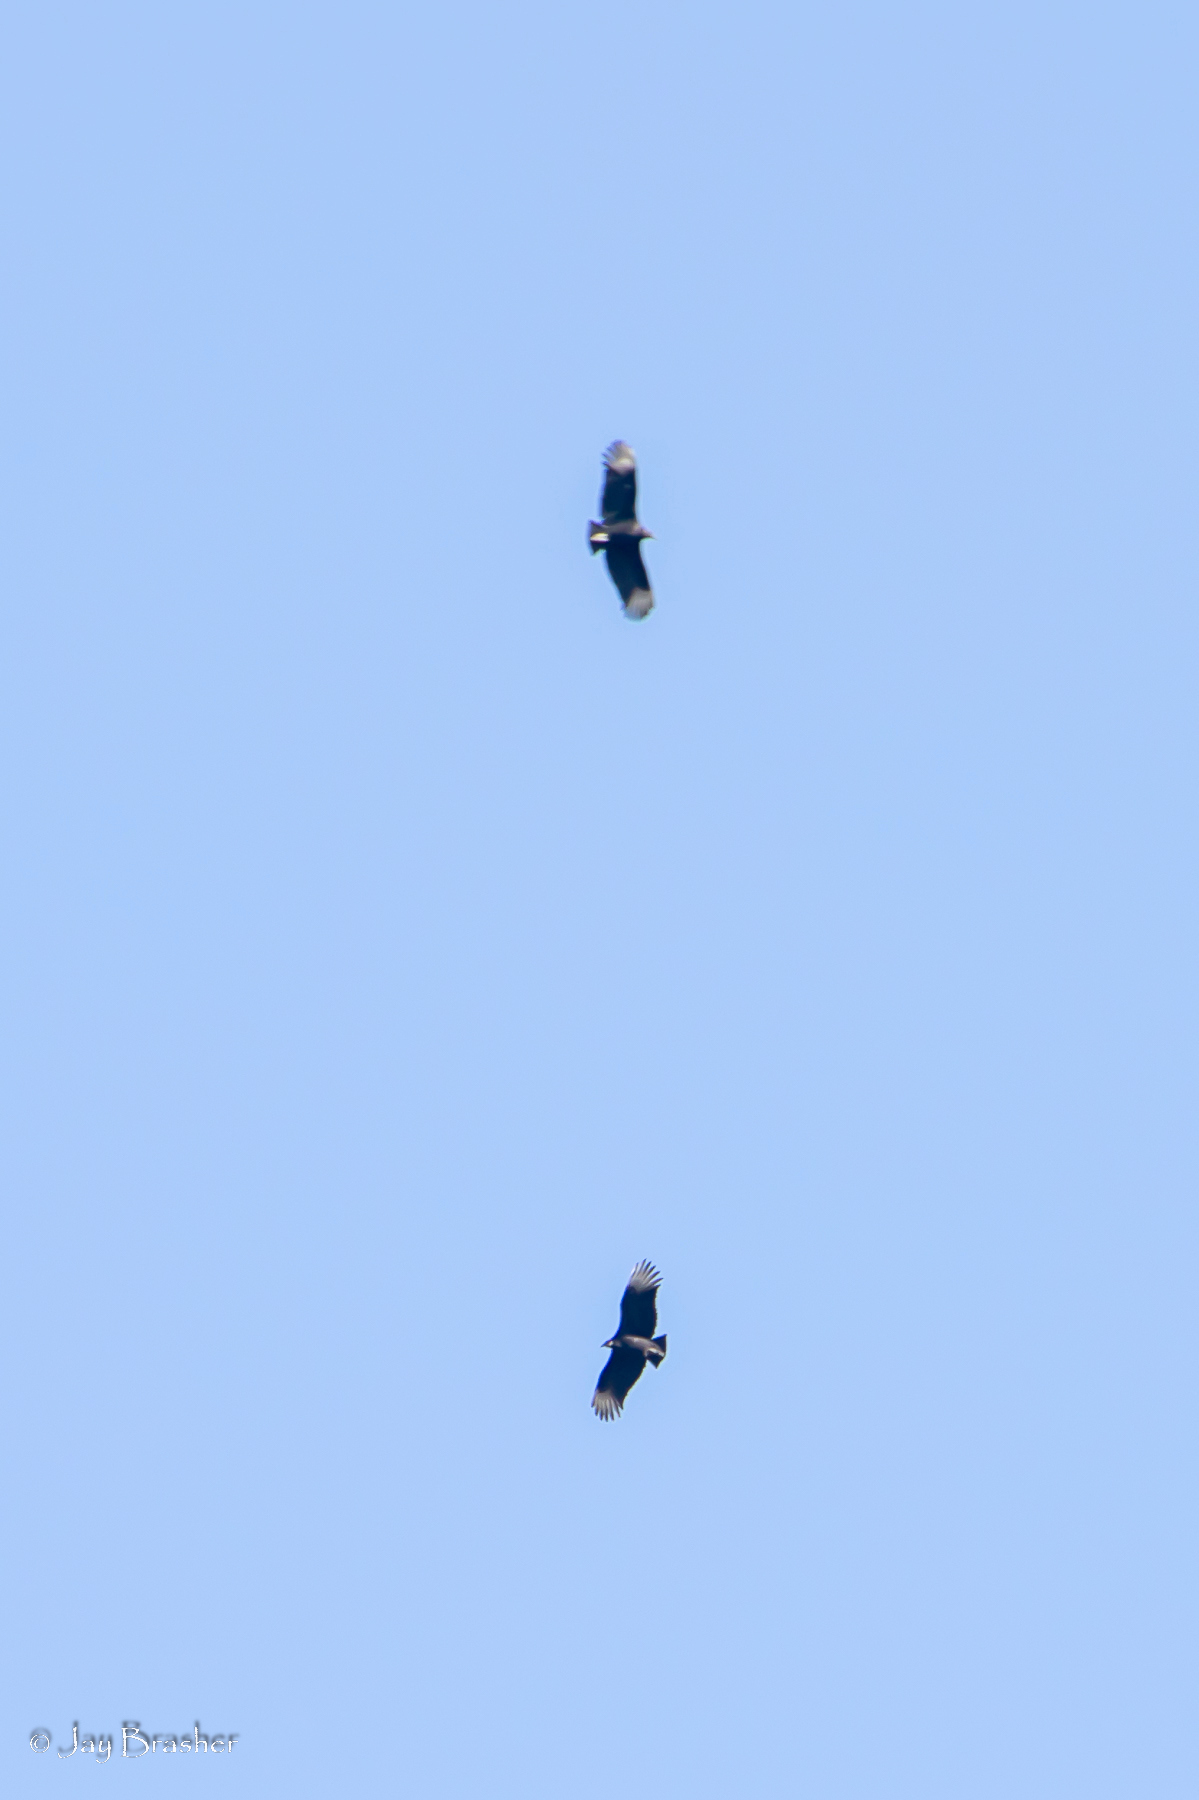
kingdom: Animalia
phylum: Chordata
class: Aves
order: Accipitriformes
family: Cathartidae
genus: Coragyps
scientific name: Coragyps atratus
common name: Black vulture
